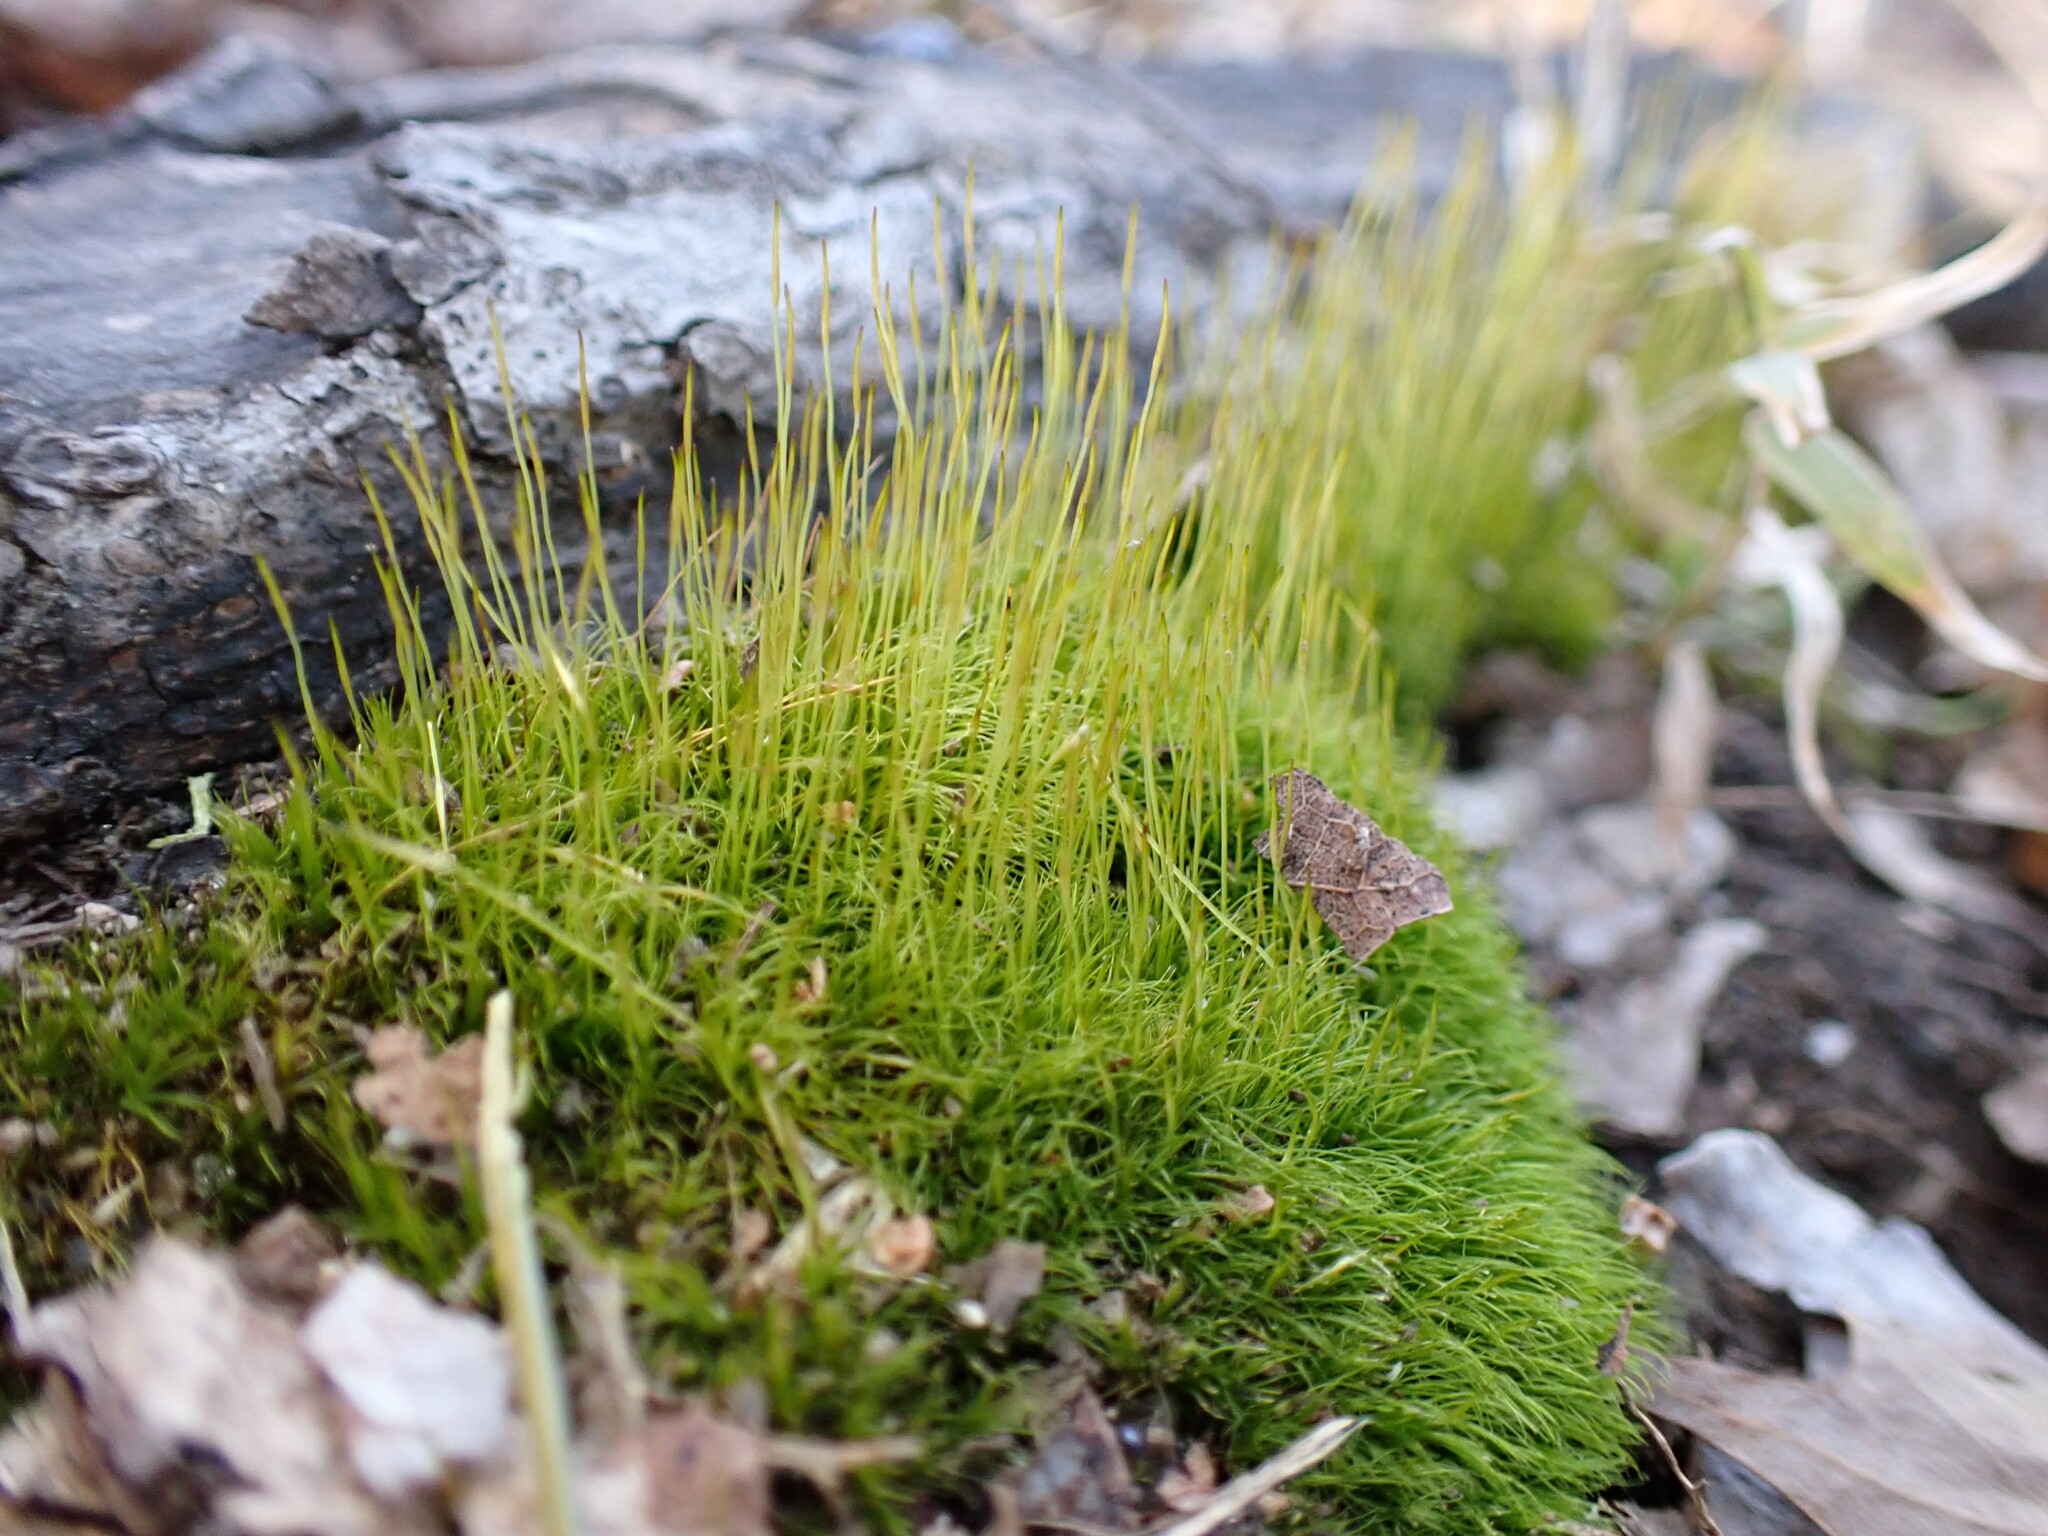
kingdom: Plantae
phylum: Bryophyta
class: Bryopsida
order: Dicranales
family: Ditrichaceae
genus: Ditrichum
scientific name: Ditrichum pallidum
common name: Pale cow-hair moss
